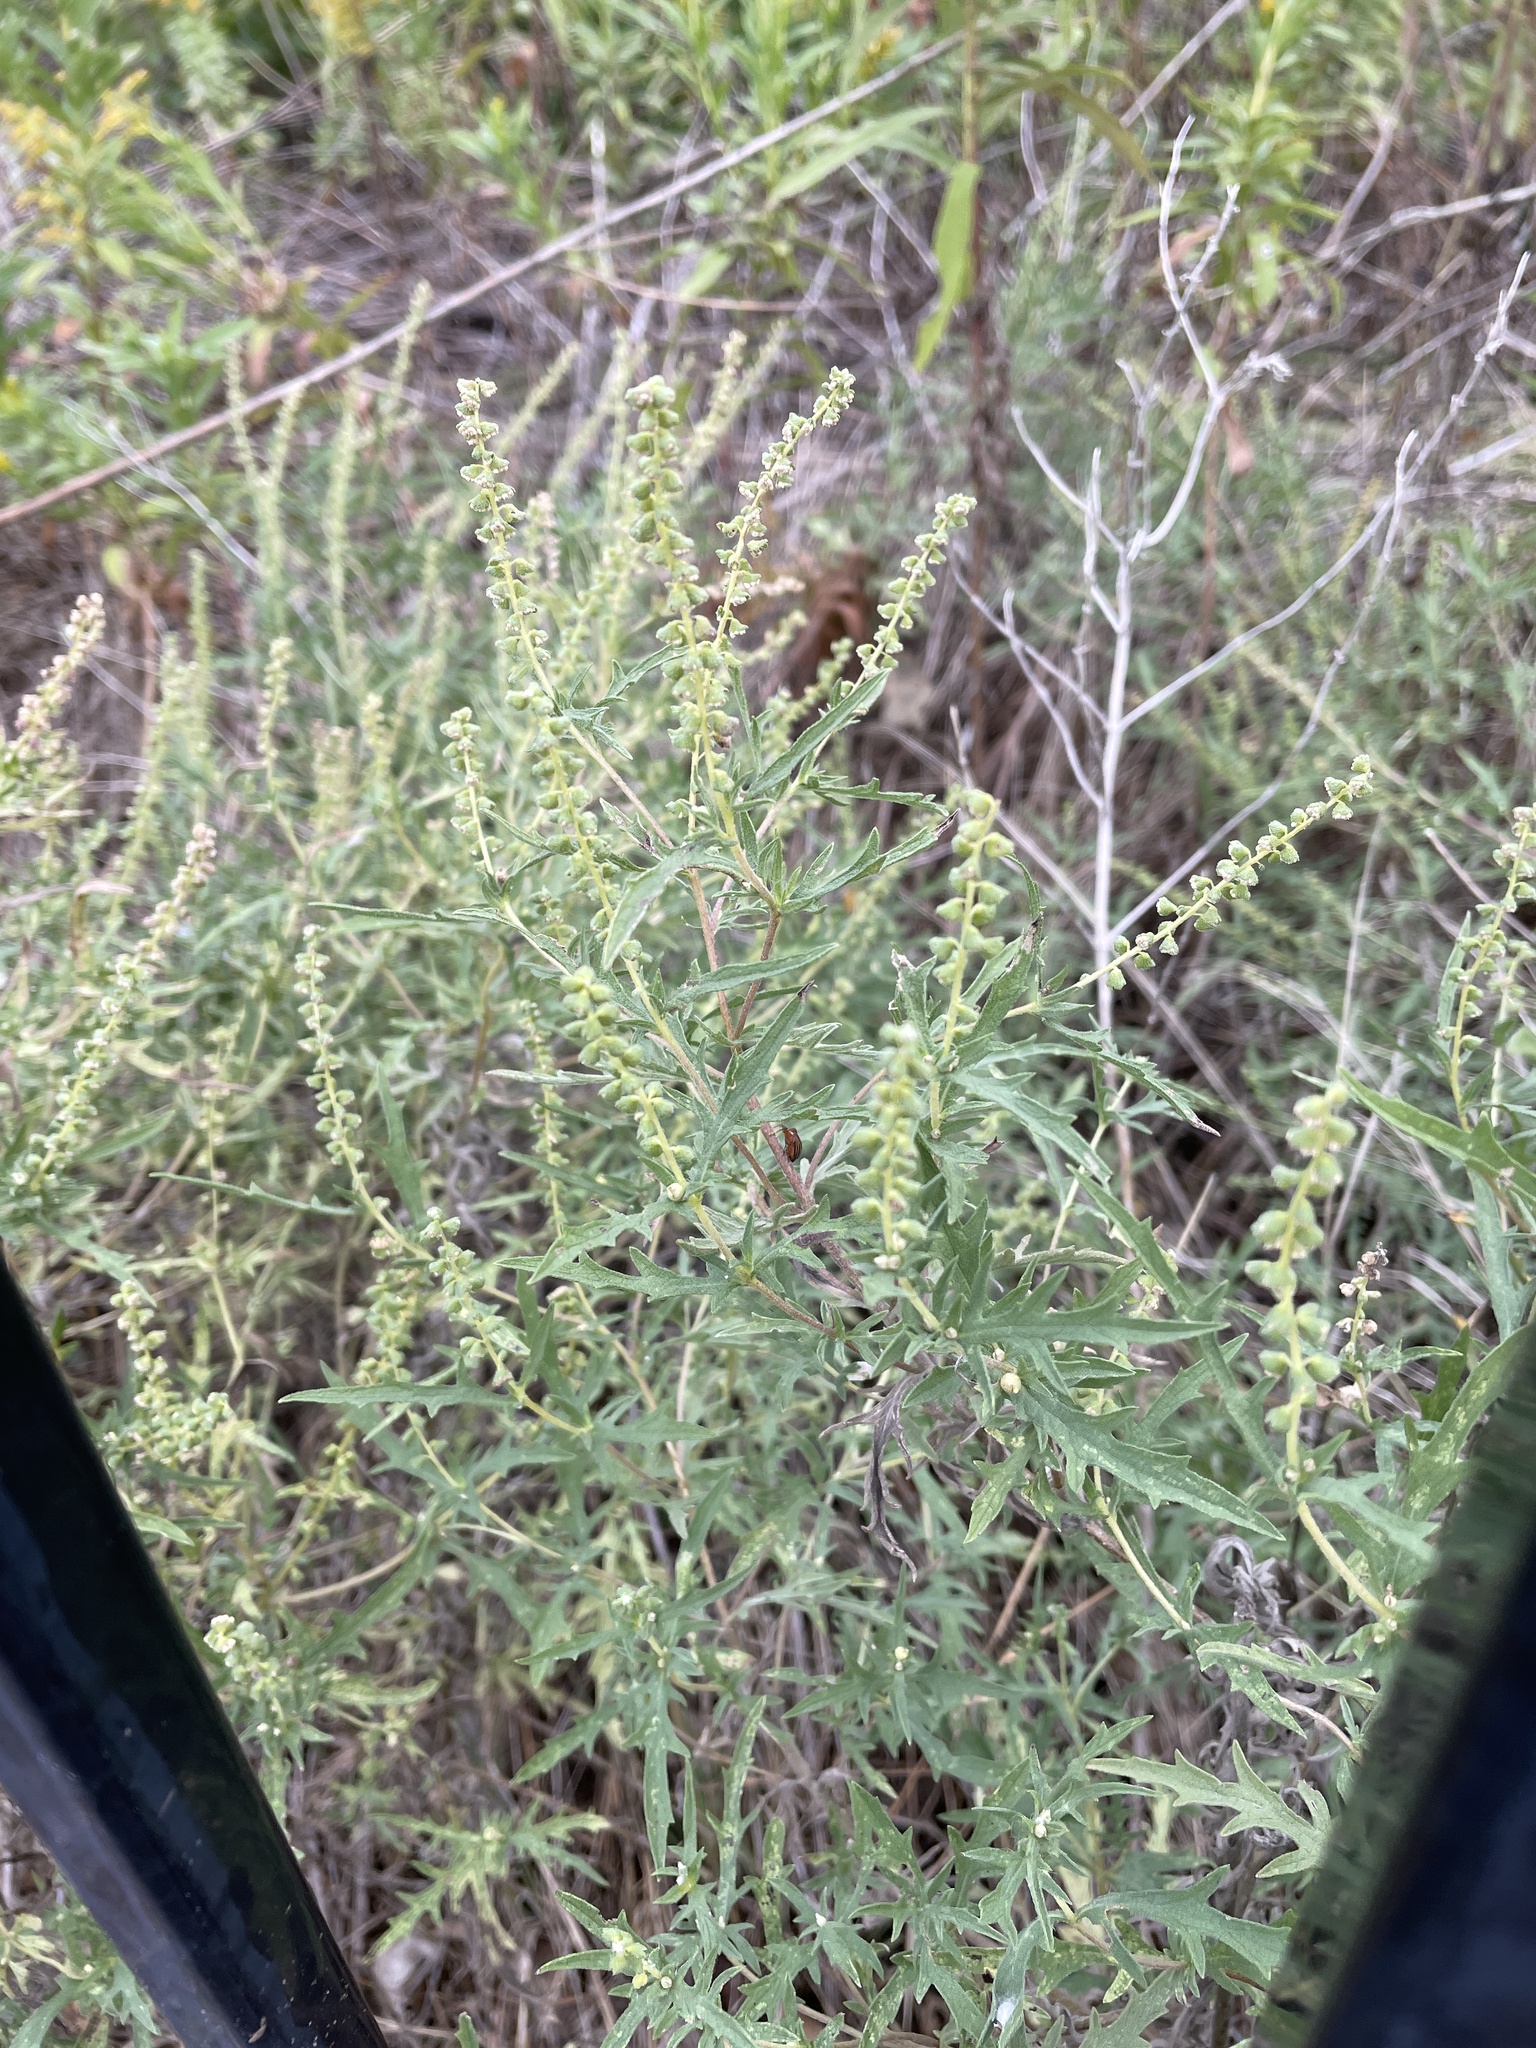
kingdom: Plantae
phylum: Tracheophyta
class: Magnoliopsida
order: Asterales
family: Asteraceae
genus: Ambrosia
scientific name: Ambrosia psilostachya
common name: Perennial ragweed
